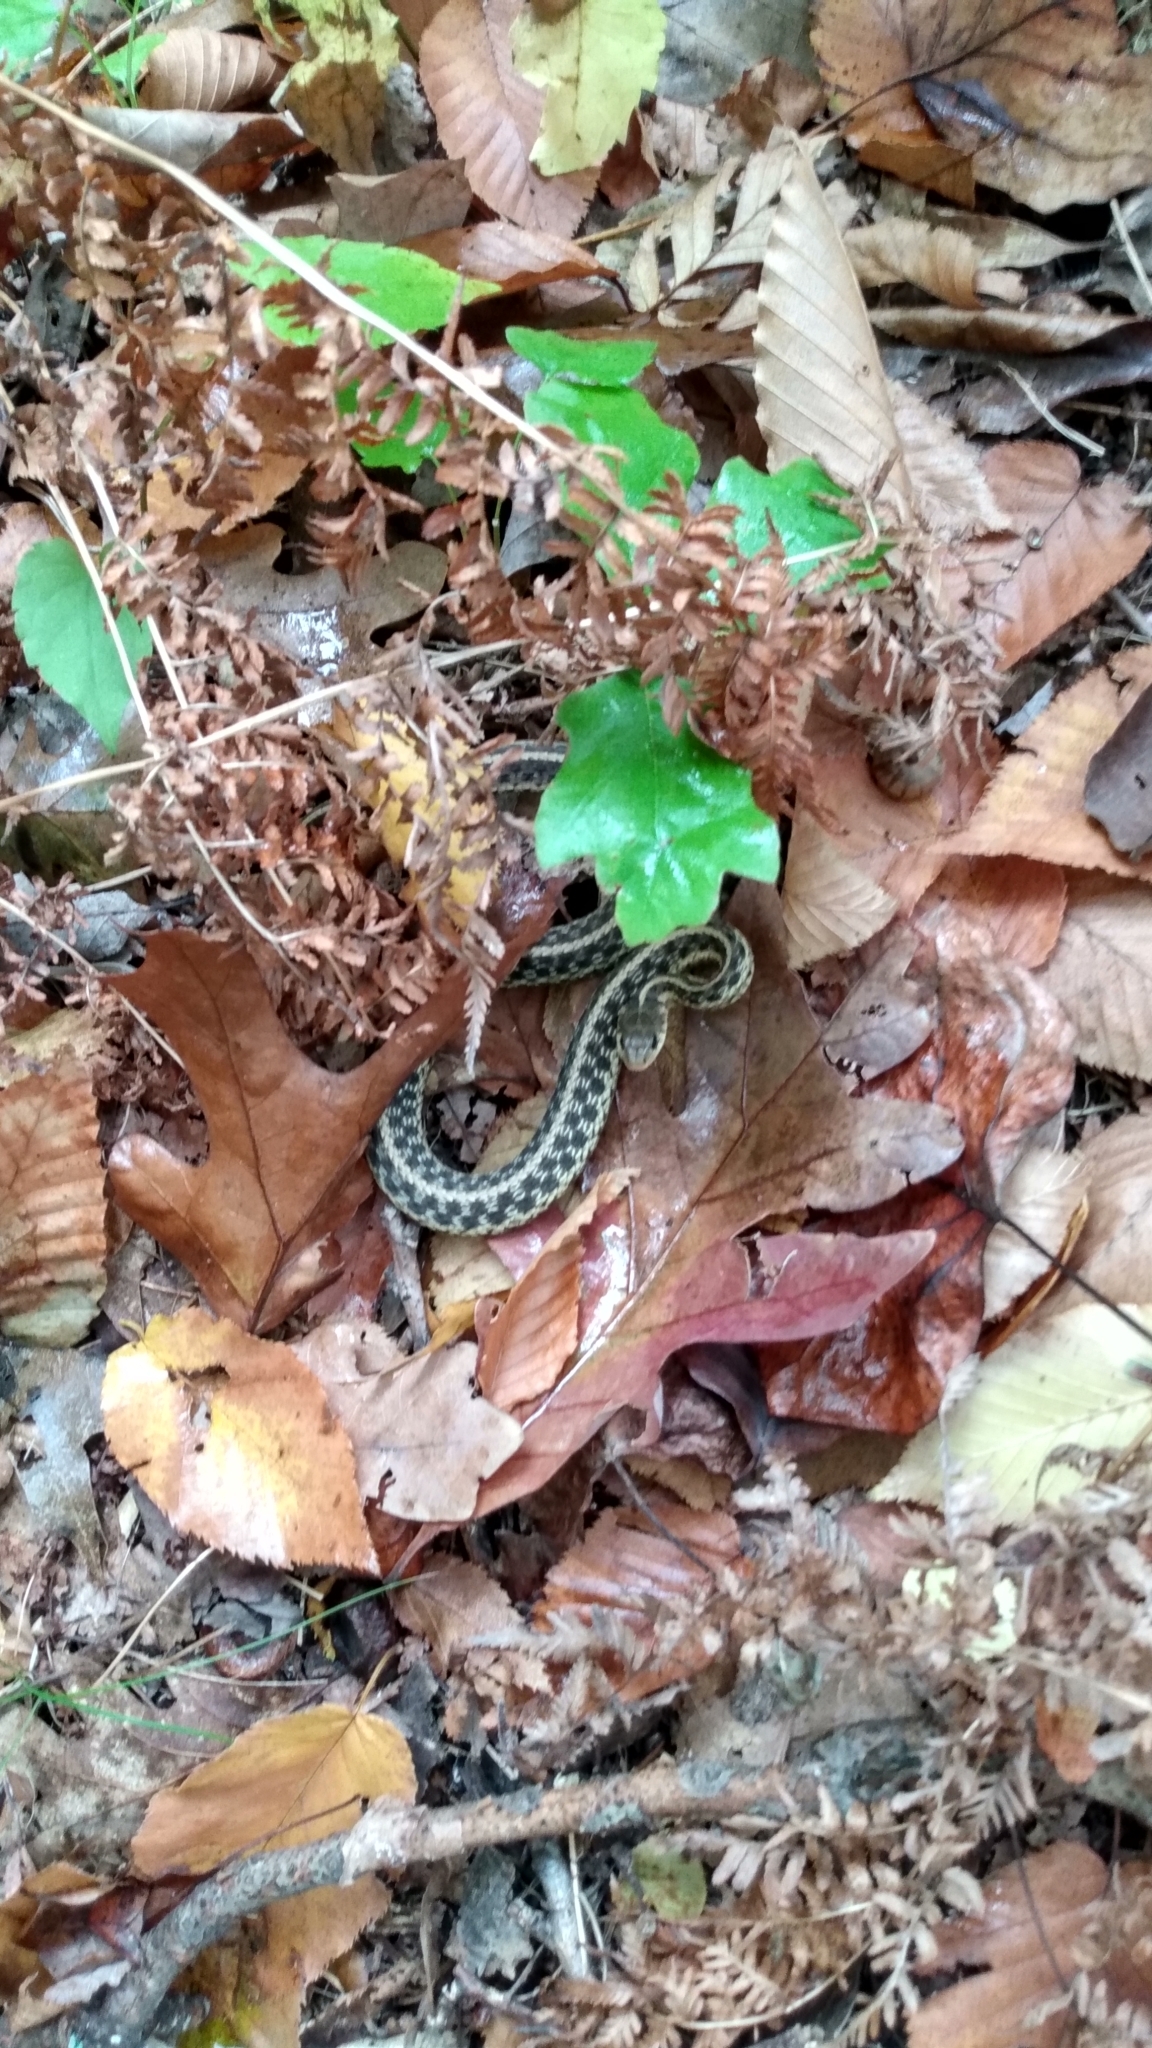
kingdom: Animalia
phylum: Chordata
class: Squamata
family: Colubridae
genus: Thamnophis
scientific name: Thamnophis sirtalis
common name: Common garter snake
